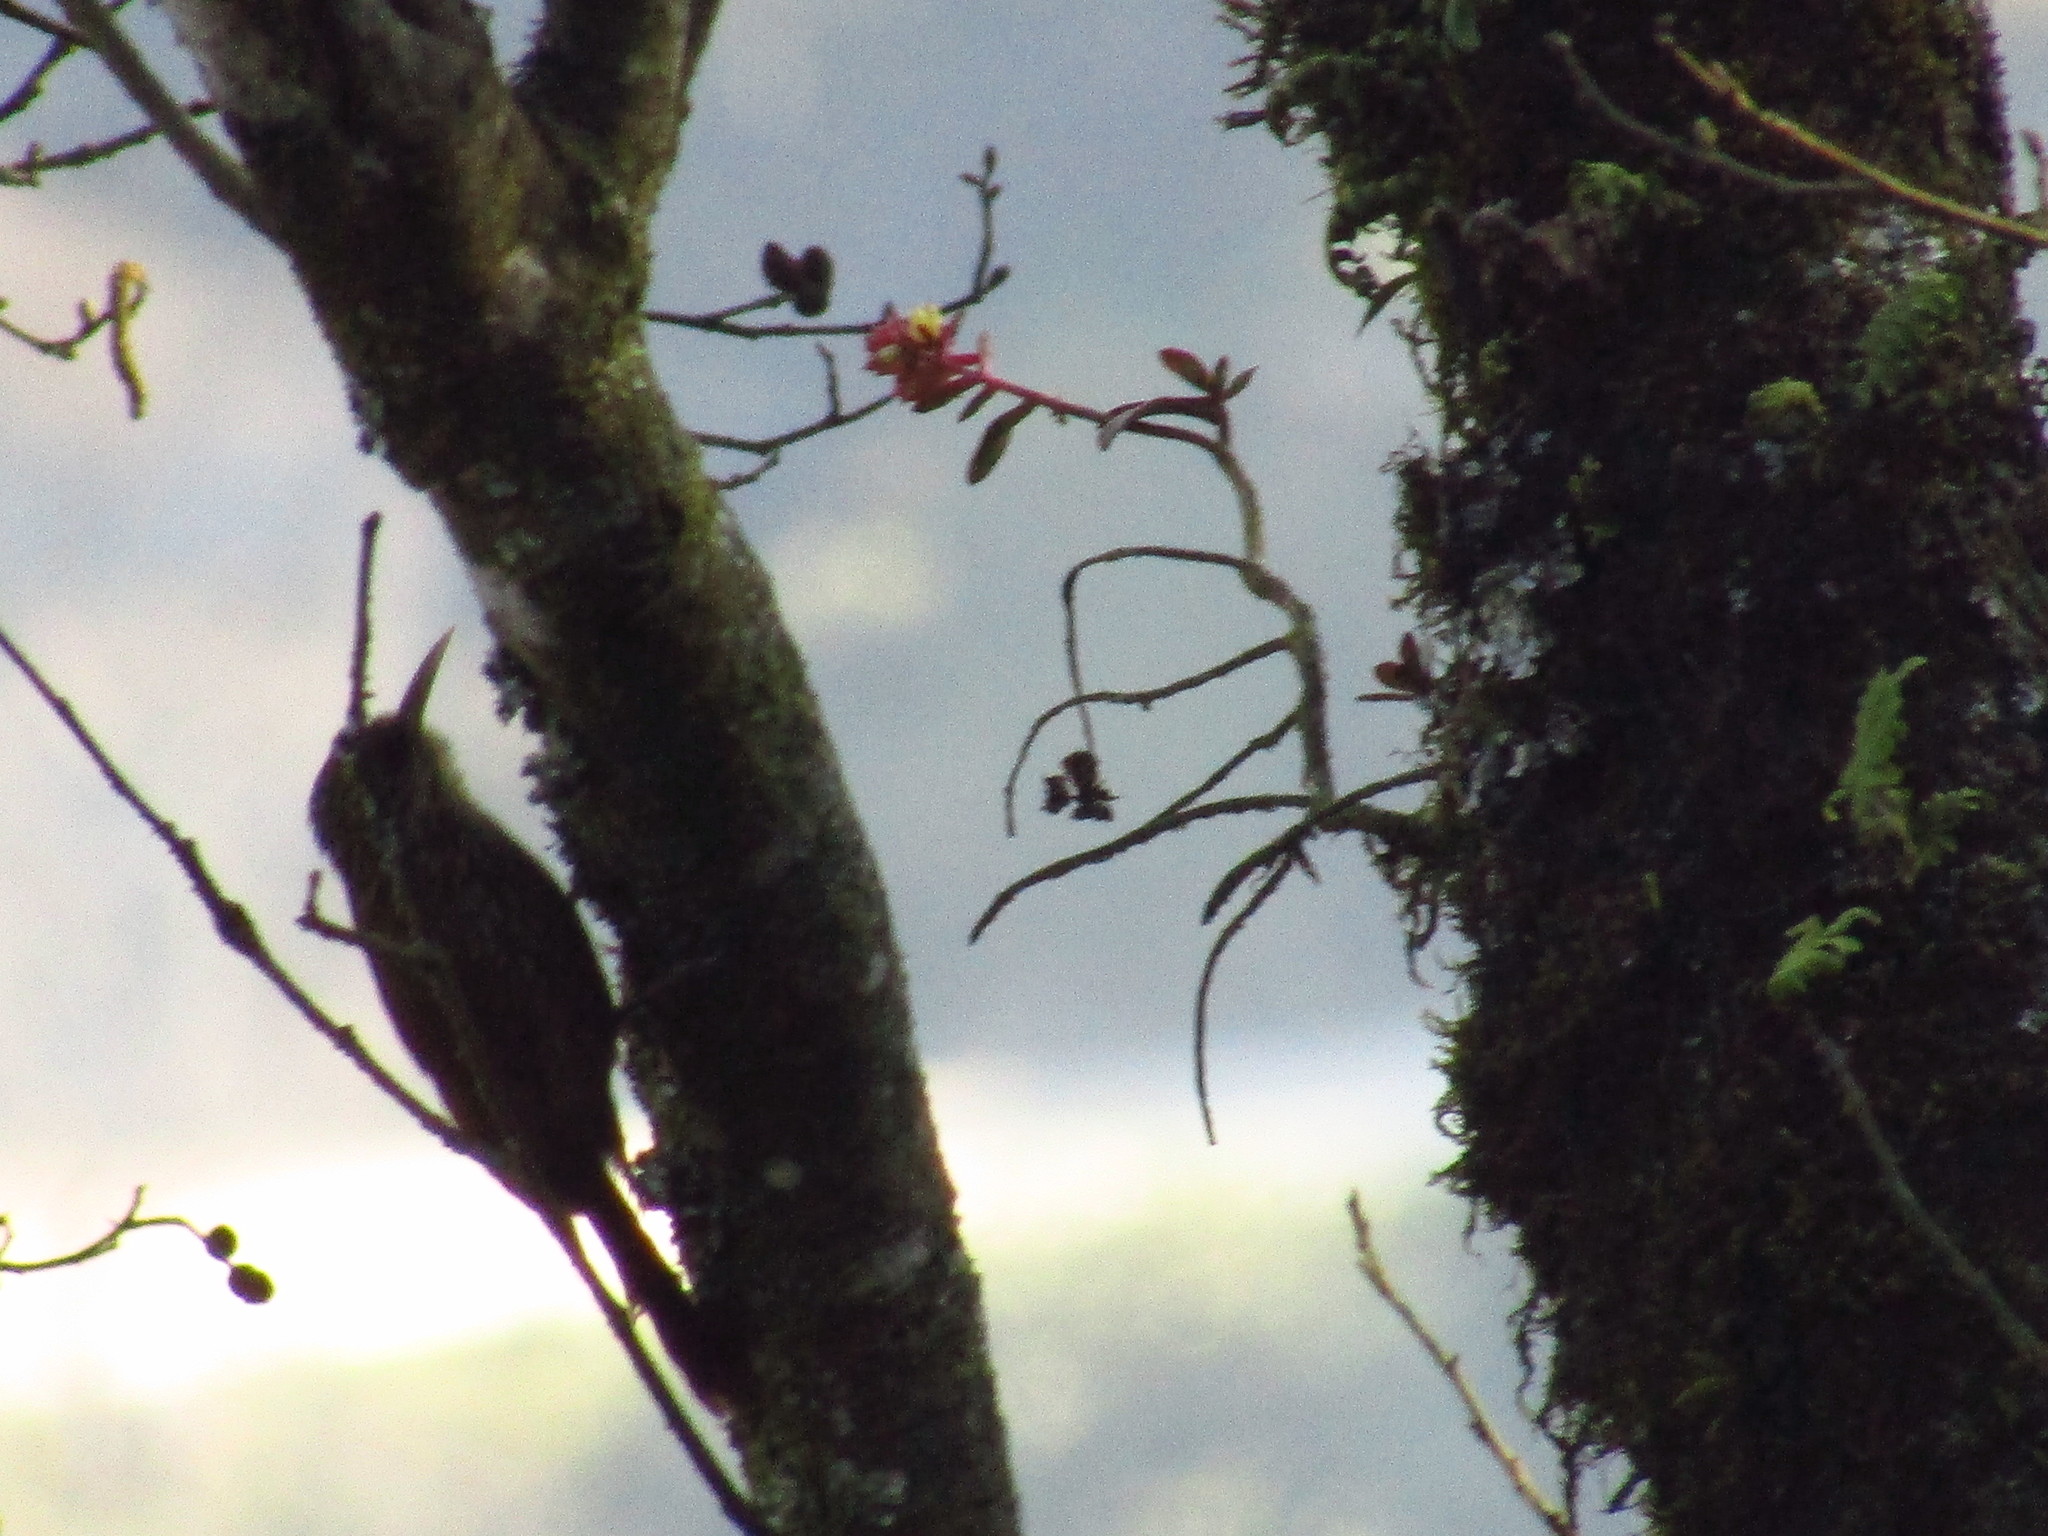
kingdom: Animalia
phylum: Chordata
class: Aves
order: Passeriformes
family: Furnariidae
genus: Lepidocolaptes
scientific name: Lepidocolaptes affinis
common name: Spot-crowned woodcreeper
